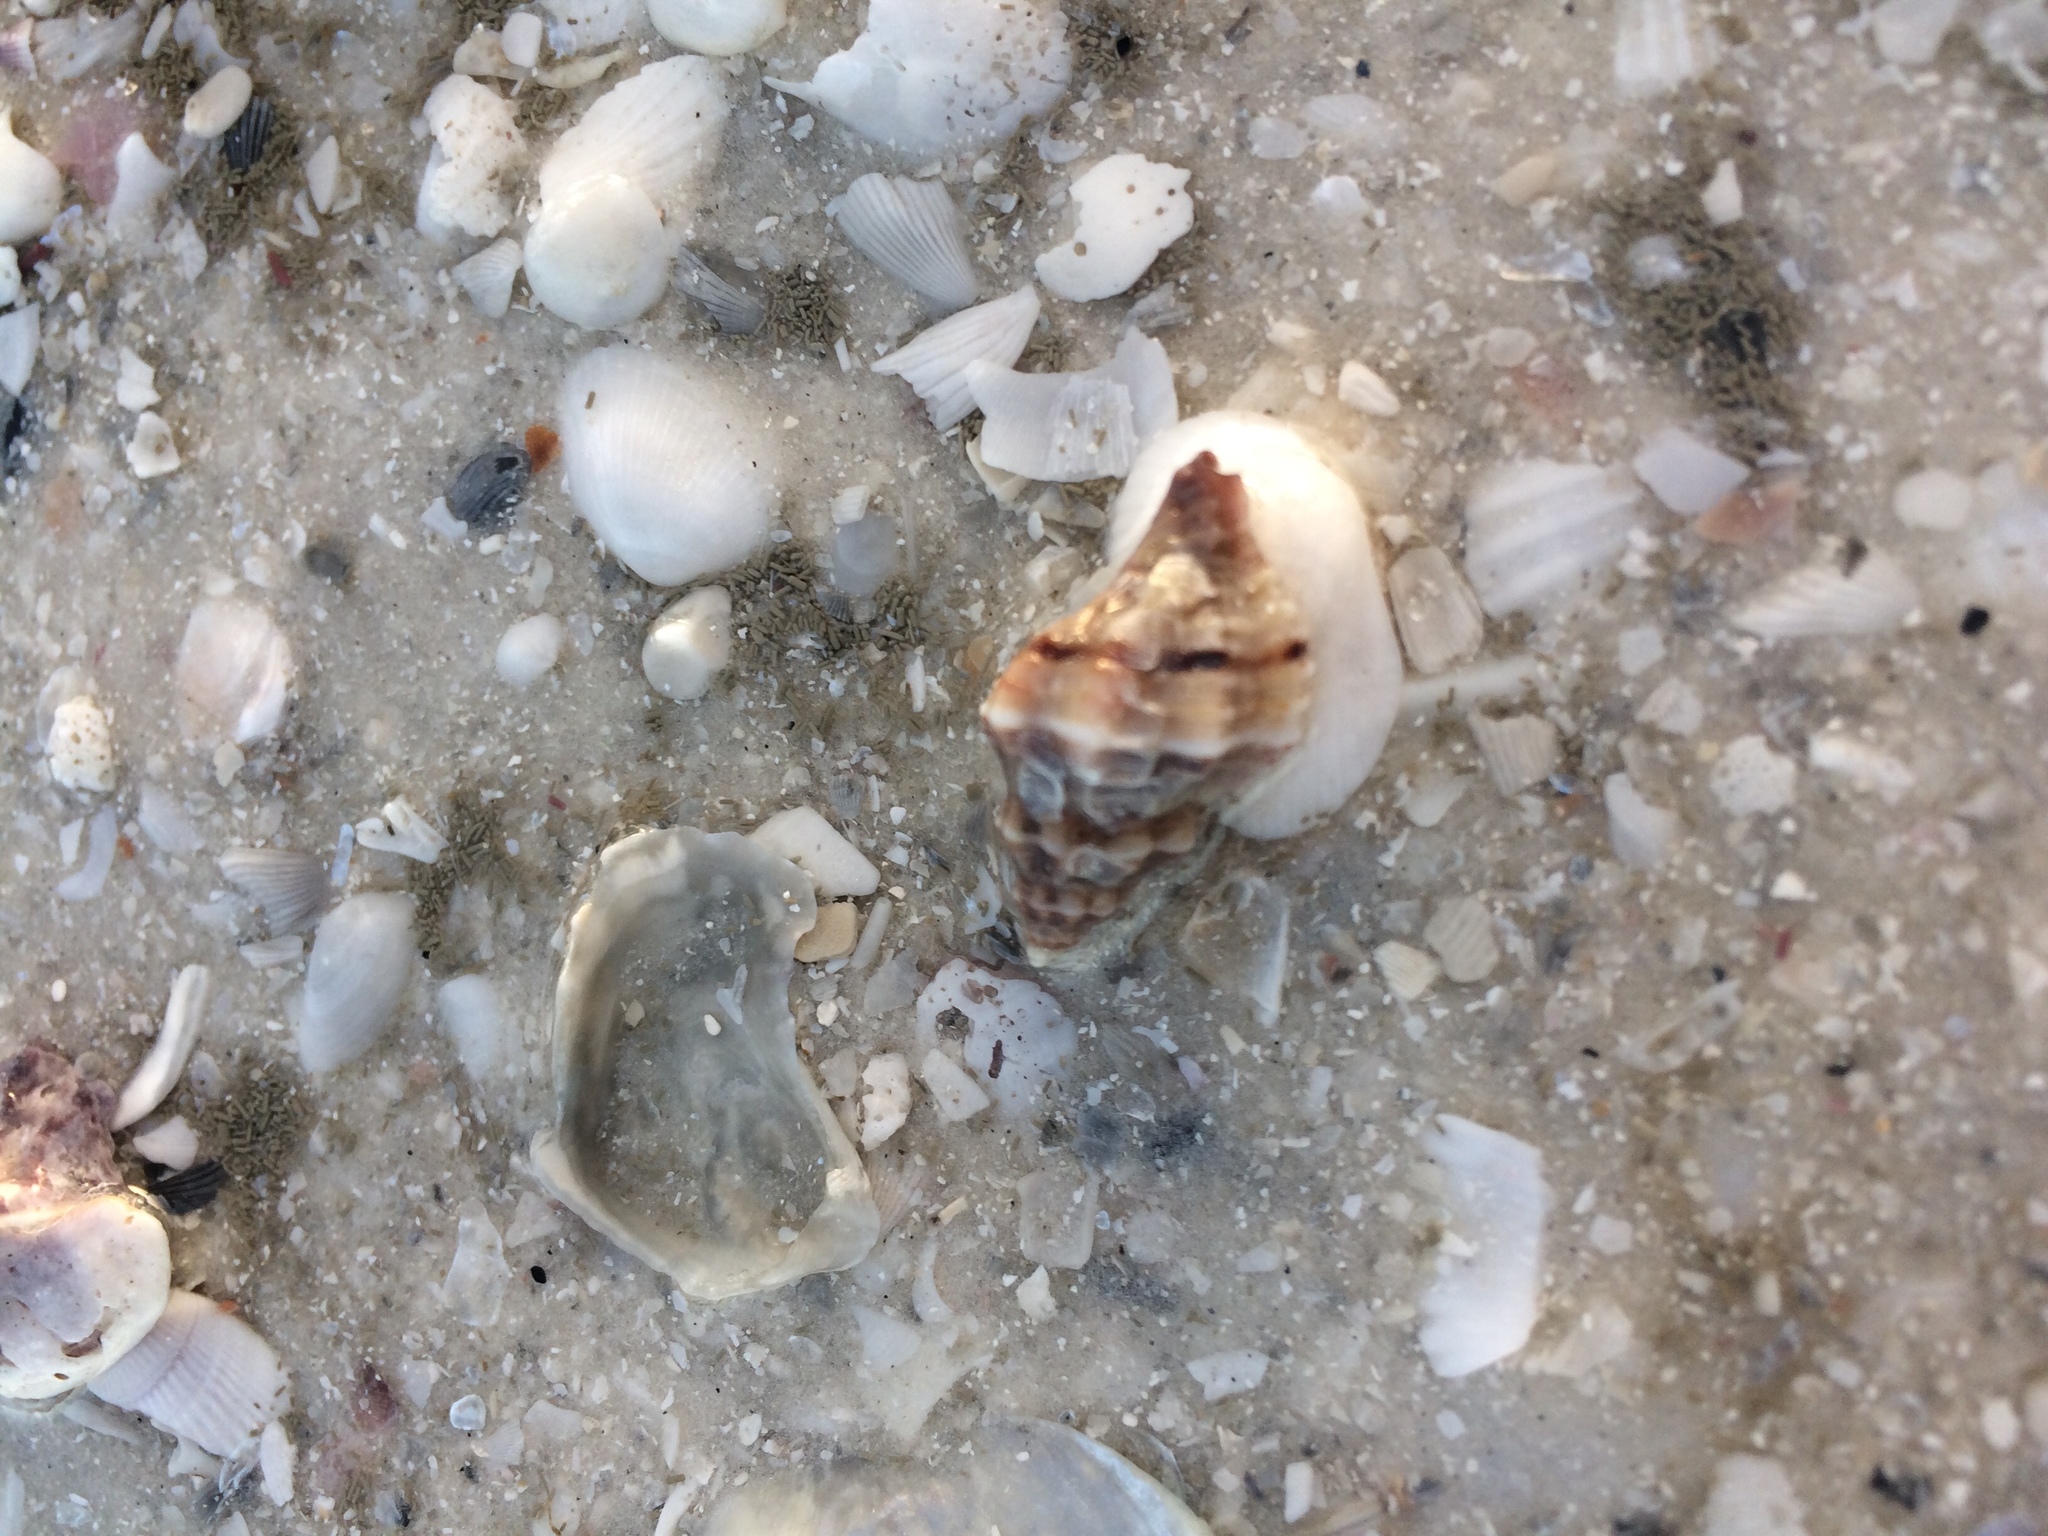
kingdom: Animalia
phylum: Mollusca
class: Gastropoda
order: Neogastropoda
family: Muricidae
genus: Vokesinotus
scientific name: Vokesinotus perrugatus
